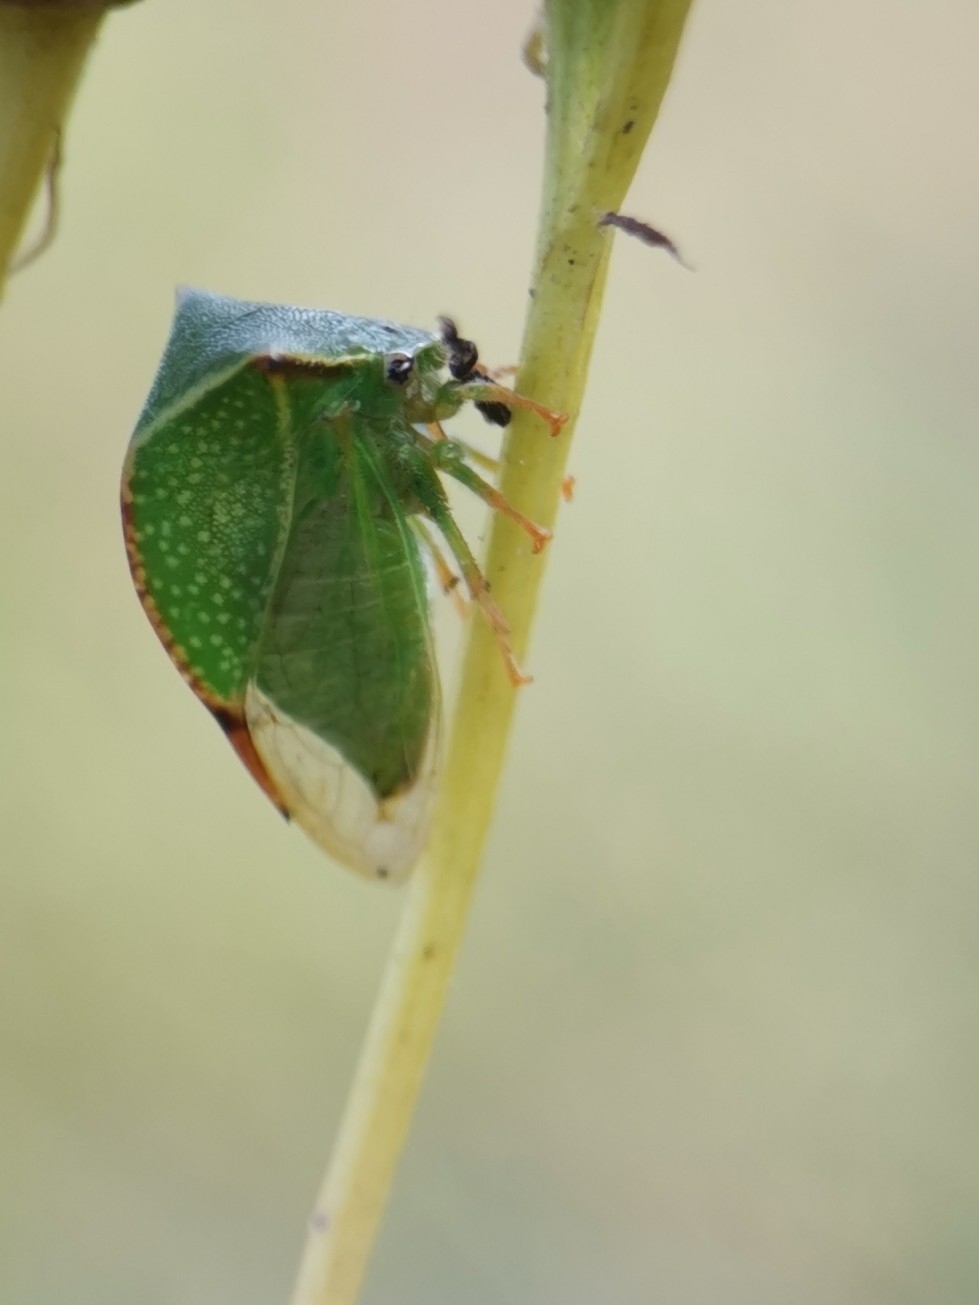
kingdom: Animalia
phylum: Arthropoda
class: Insecta
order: Hemiptera
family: Membracidae
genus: Stictocephala
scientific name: Stictocephala bisonia
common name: American buffalo treehopper
